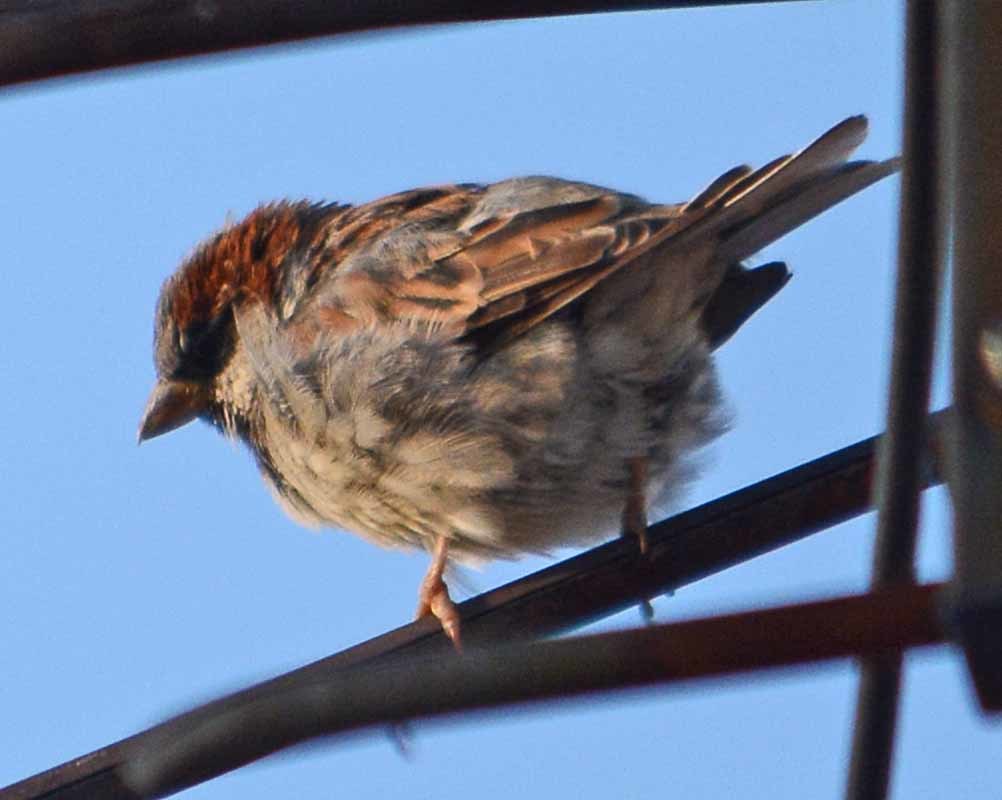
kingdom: Animalia
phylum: Chordata
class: Aves
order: Passeriformes
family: Passeridae
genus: Passer
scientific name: Passer domesticus
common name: House sparrow
